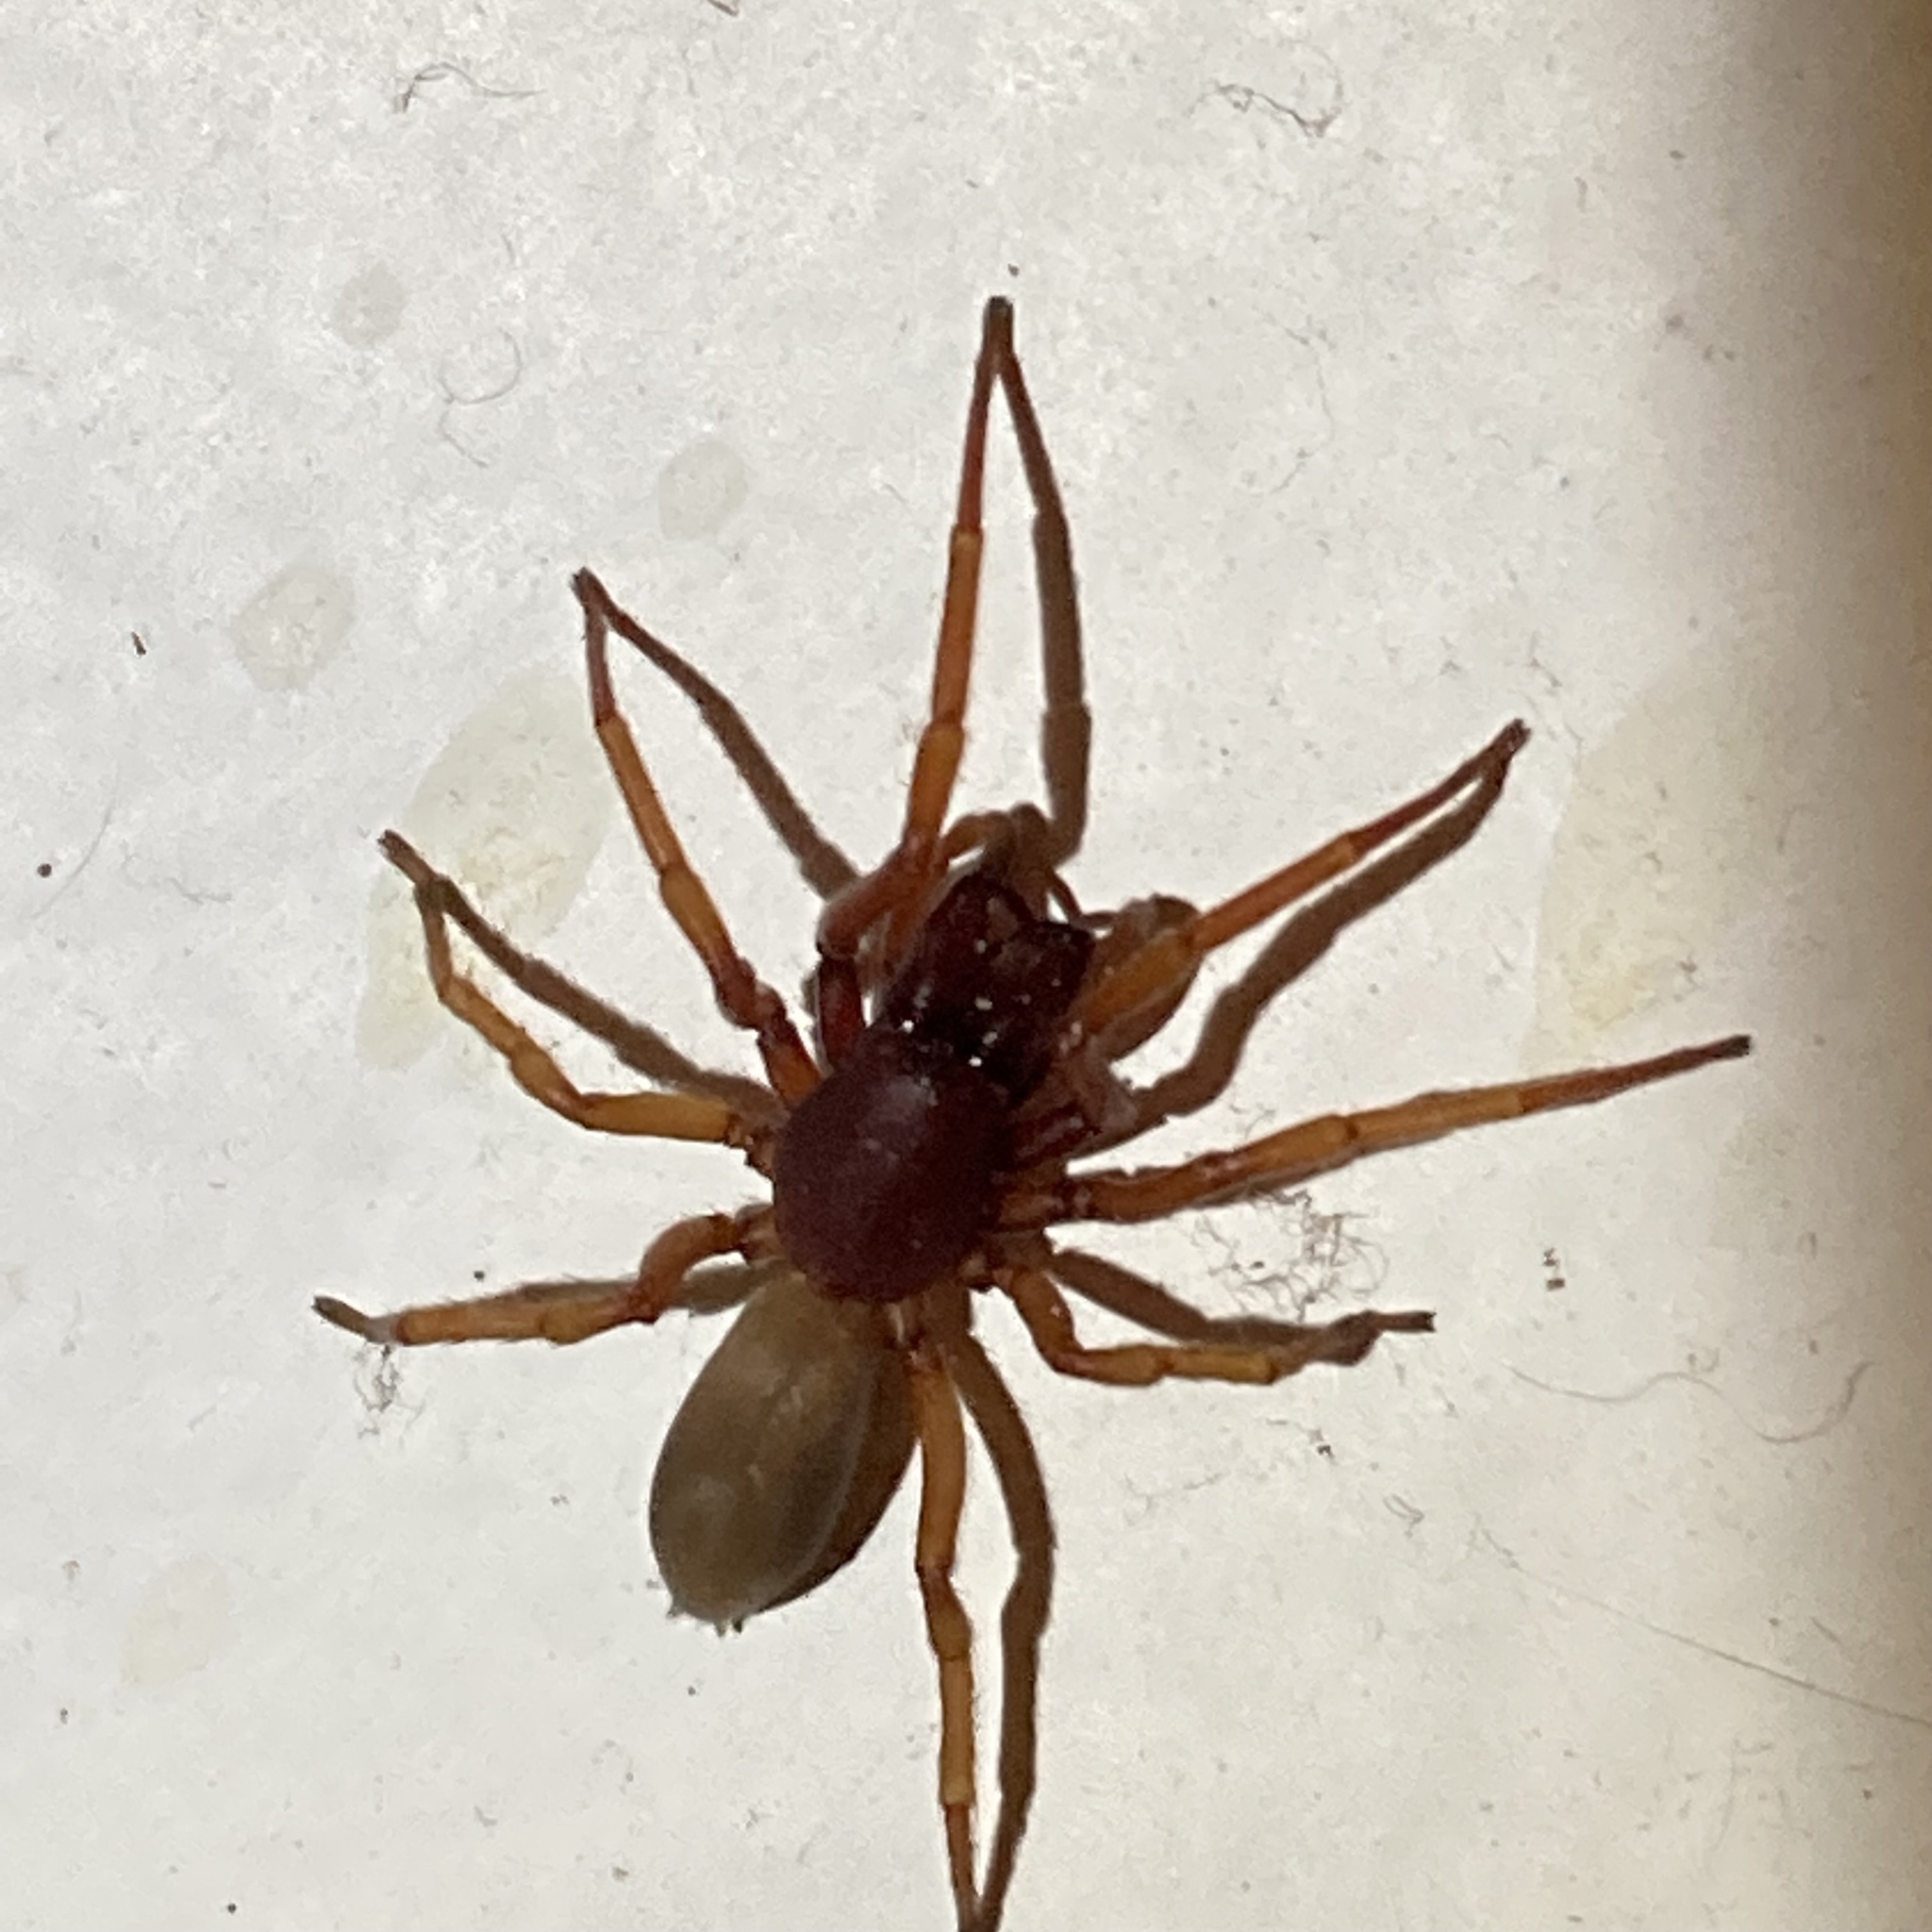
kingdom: Animalia
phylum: Arthropoda
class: Arachnida
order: Araneae
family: Dysderidae
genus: Dysdera
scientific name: Dysdera crocata
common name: Woodlouse spider
